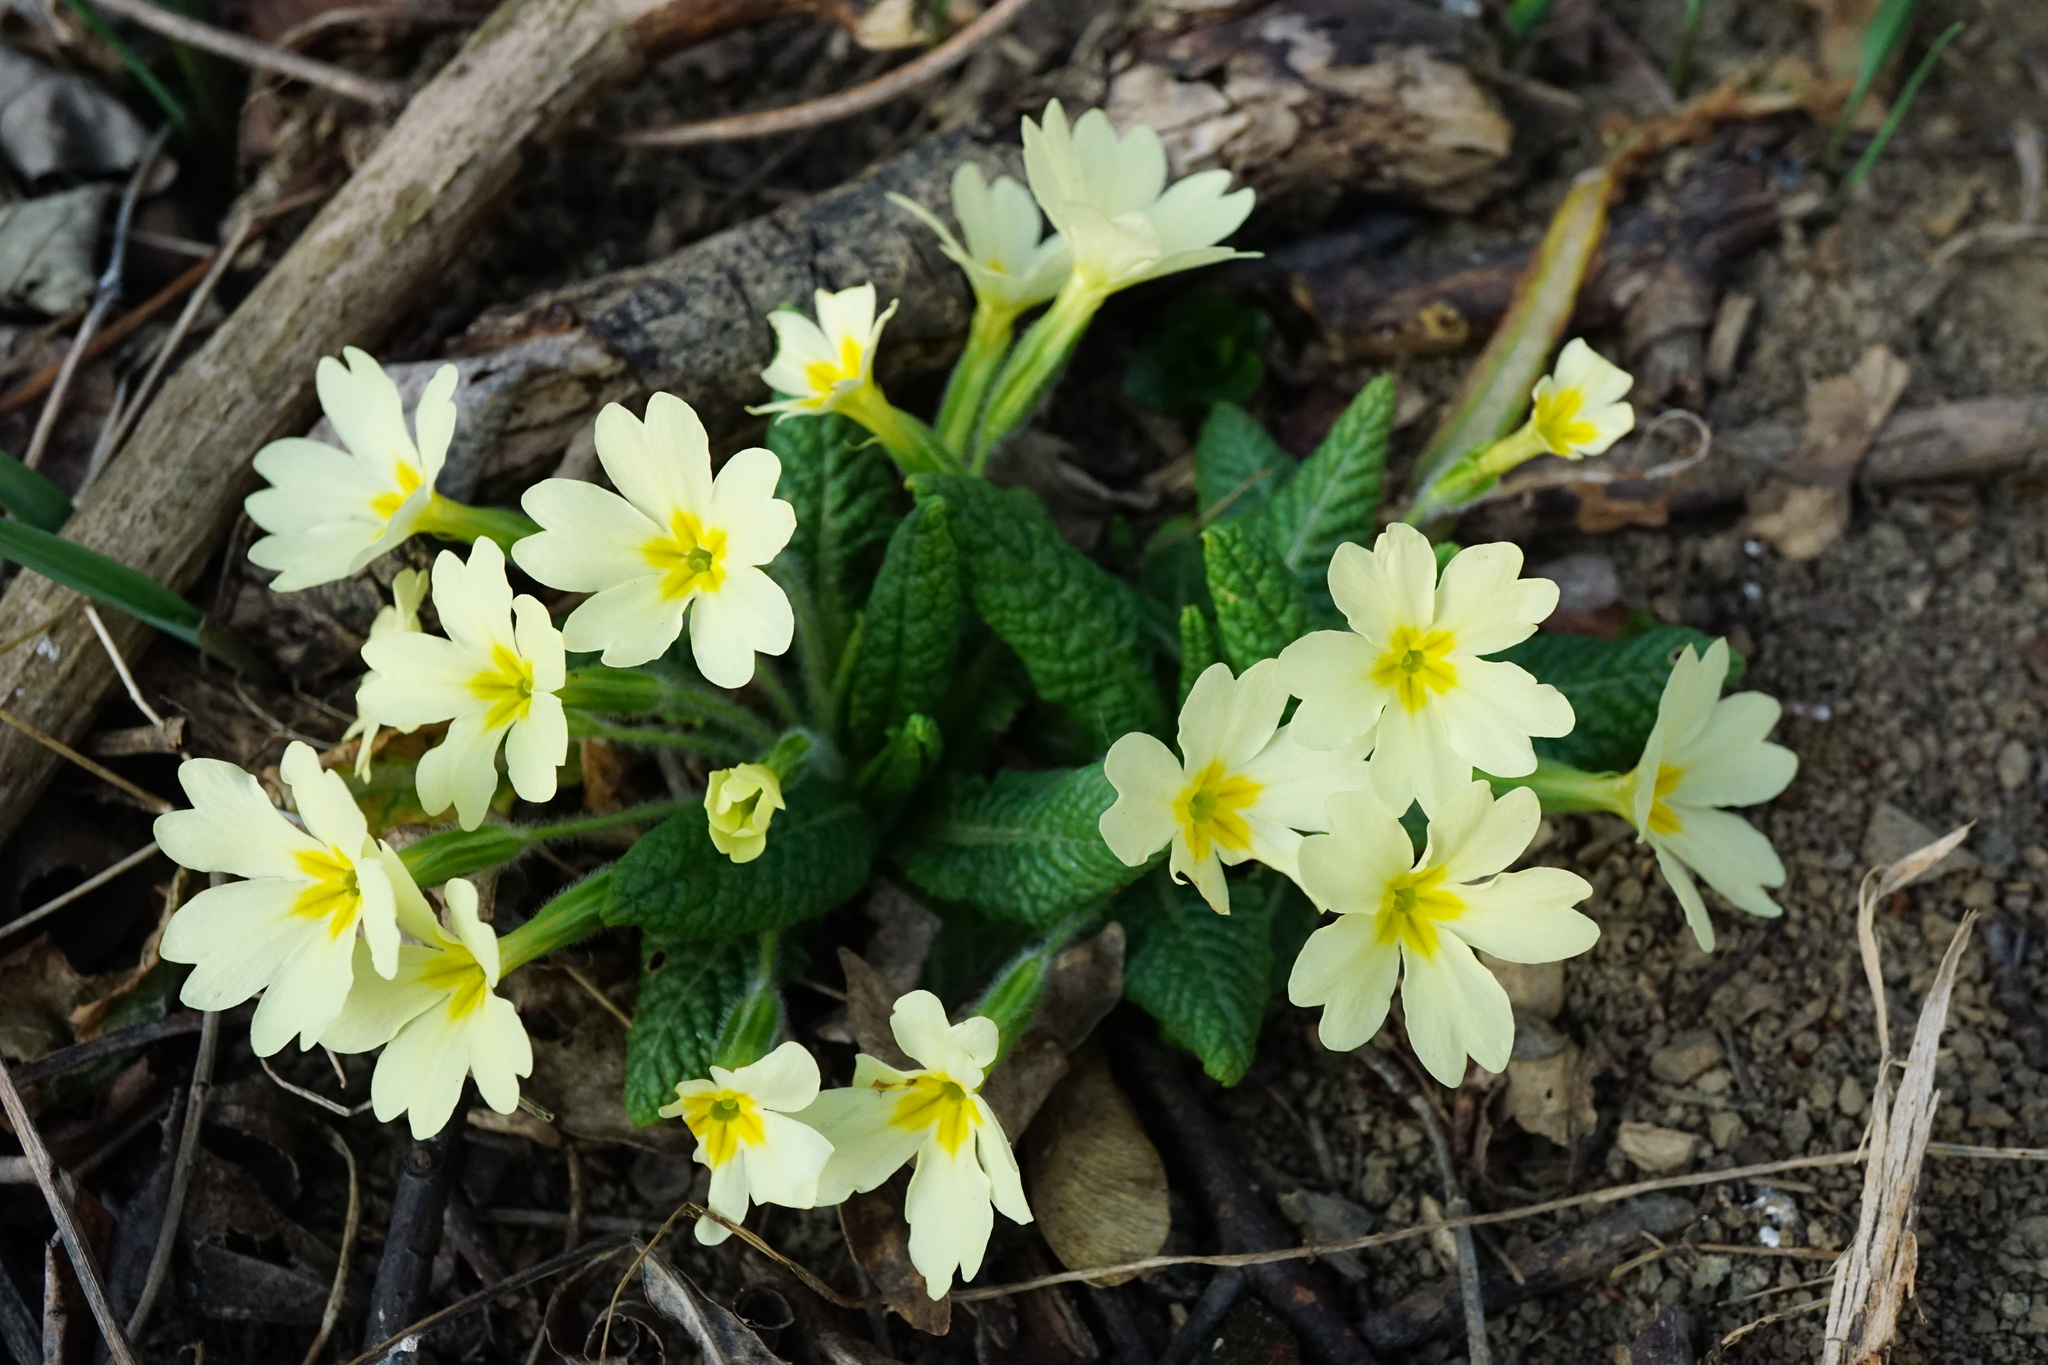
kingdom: Plantae
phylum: Tracheophyta
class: Magnoliopsida
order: Ericales
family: Primulaceae
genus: Primula
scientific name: Primula vulgaris
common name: Primrose
